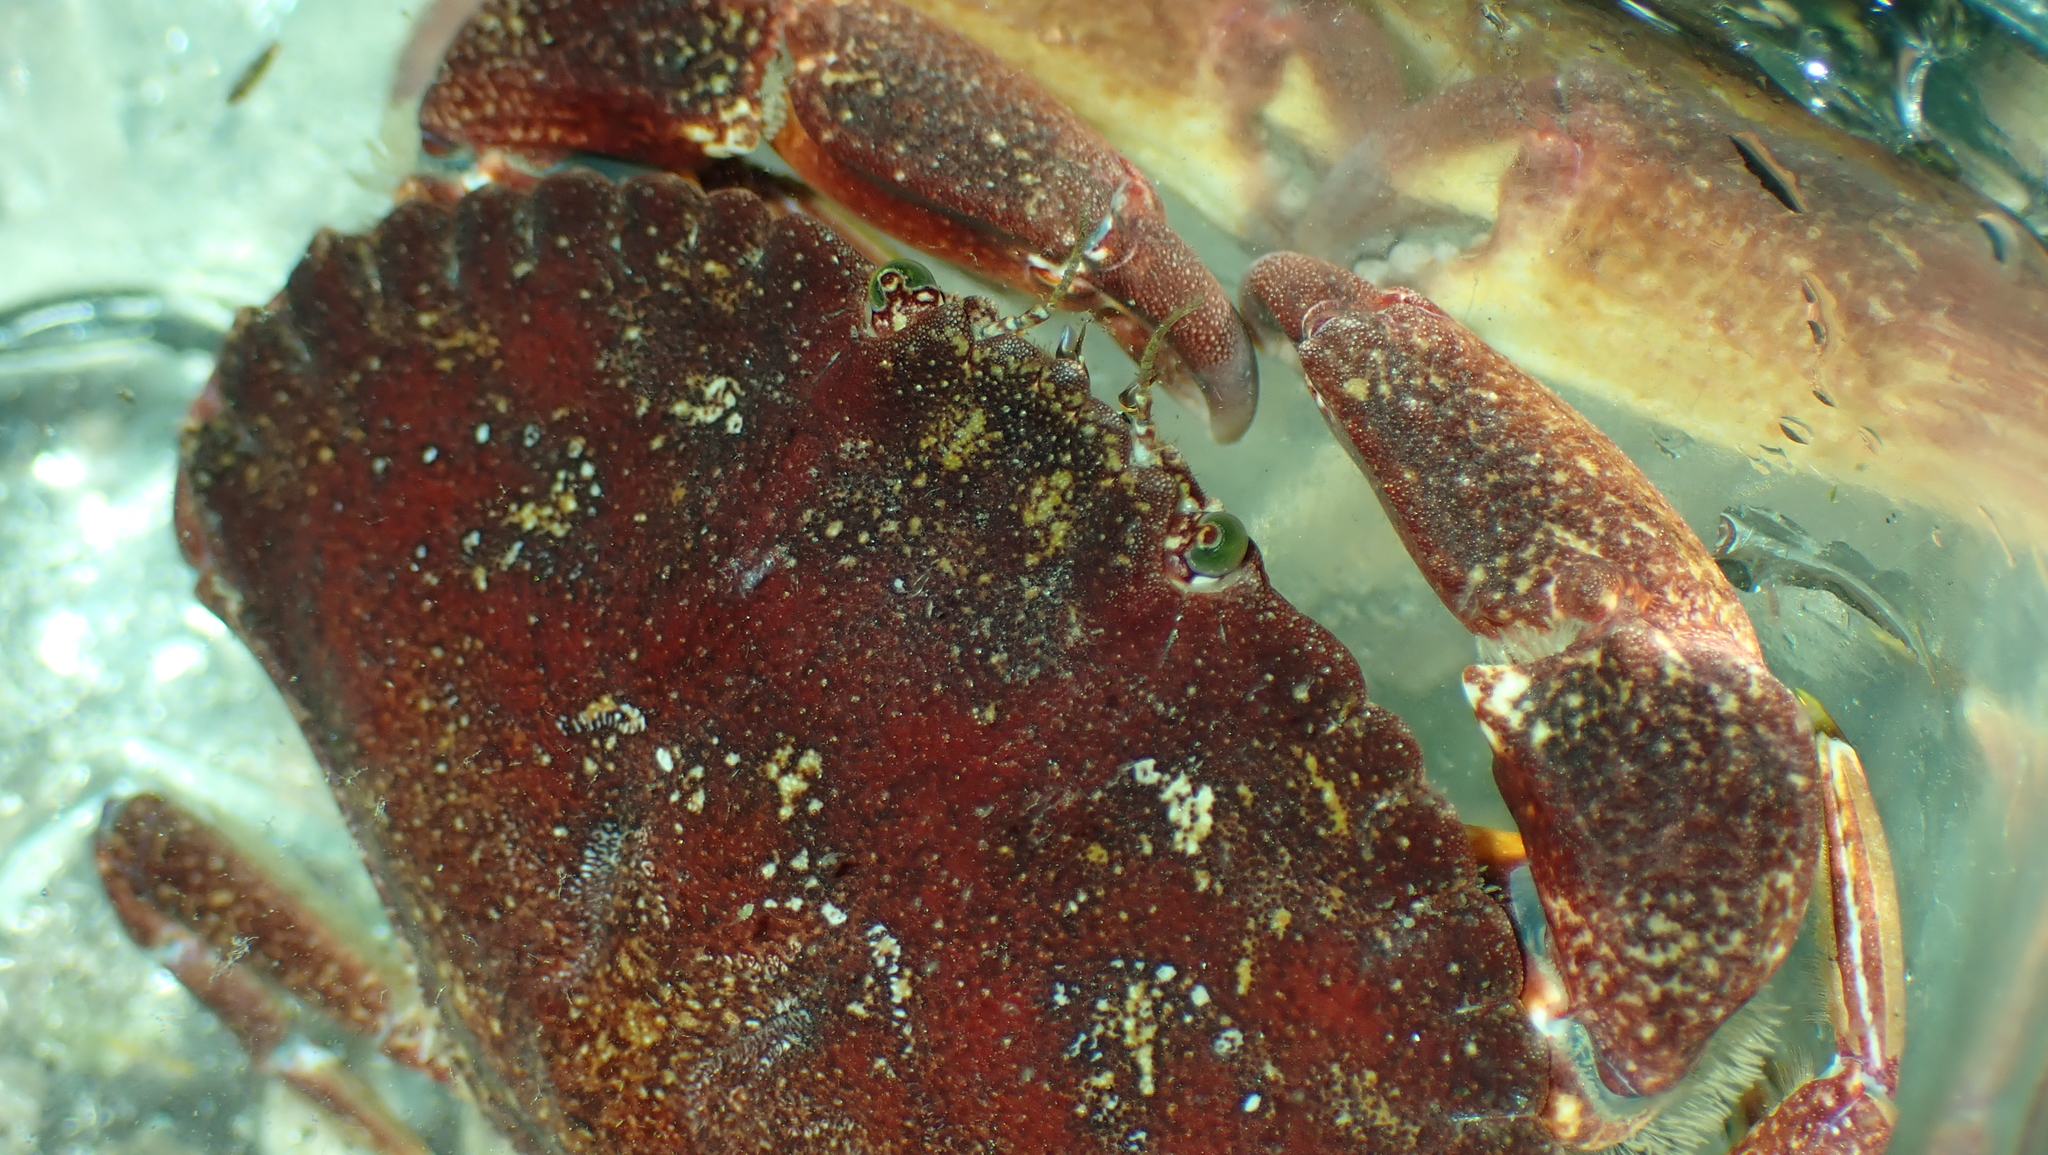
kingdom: Animalia
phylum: Arthropoda
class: Malacostraca
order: Decapoda
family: Cancridae
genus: Cancer
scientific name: Cancer productus
